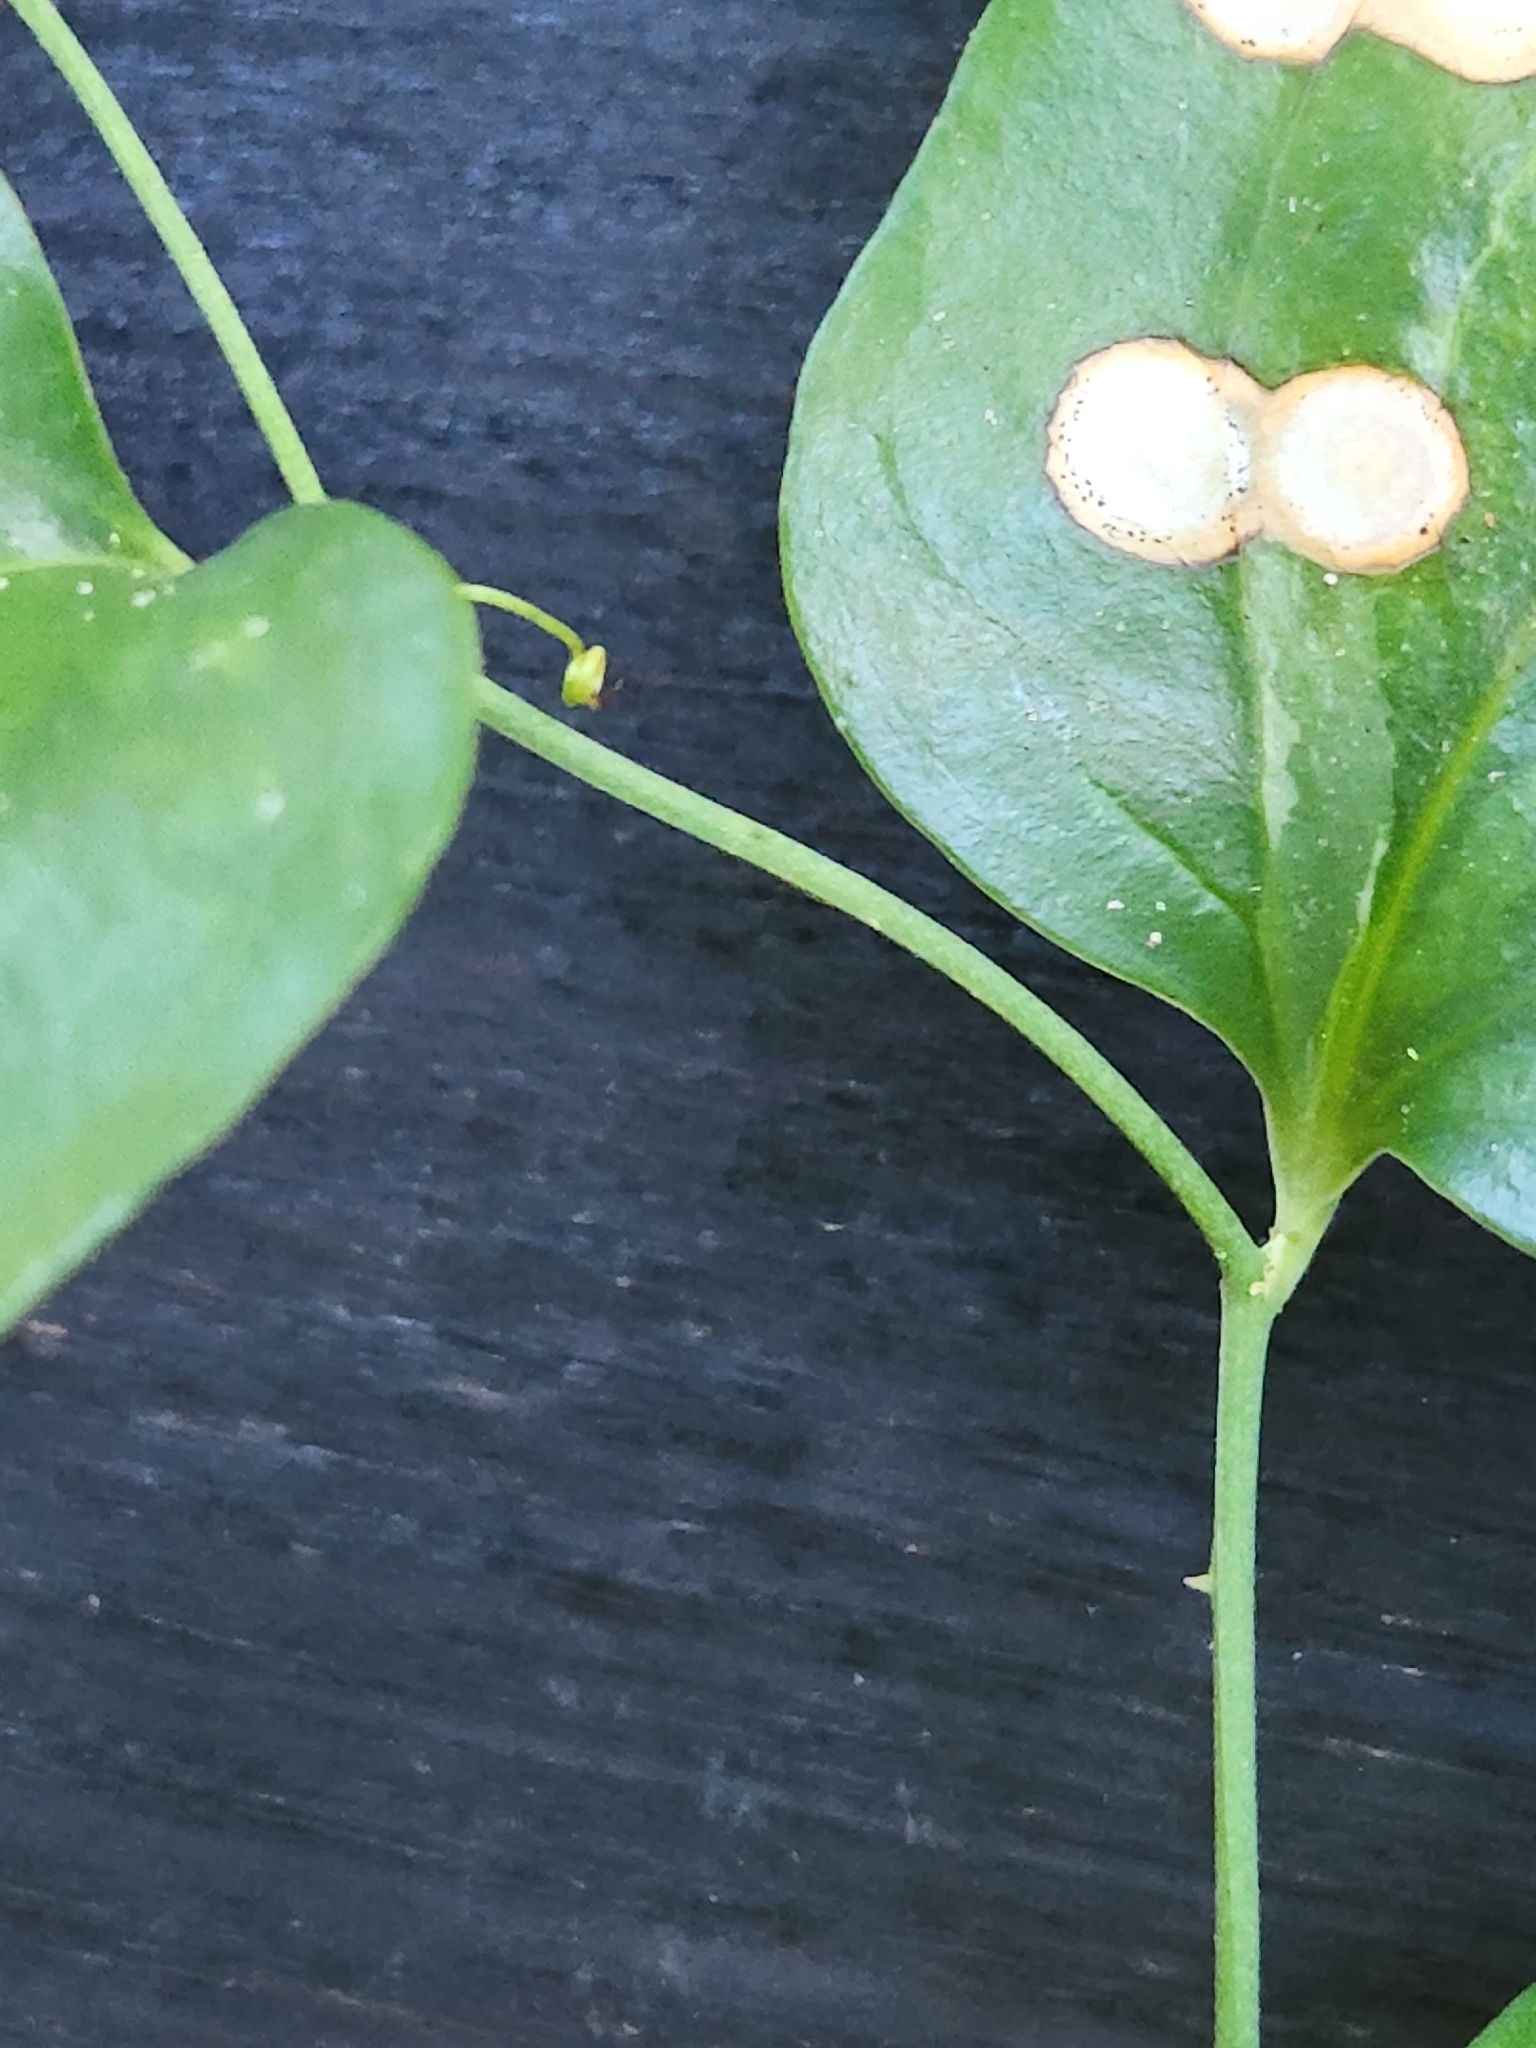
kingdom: Plantae
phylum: Tracheophyta
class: Liliopsida
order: Liliales
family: Smilacaceae
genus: Smilax
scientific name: Smilax maritima
